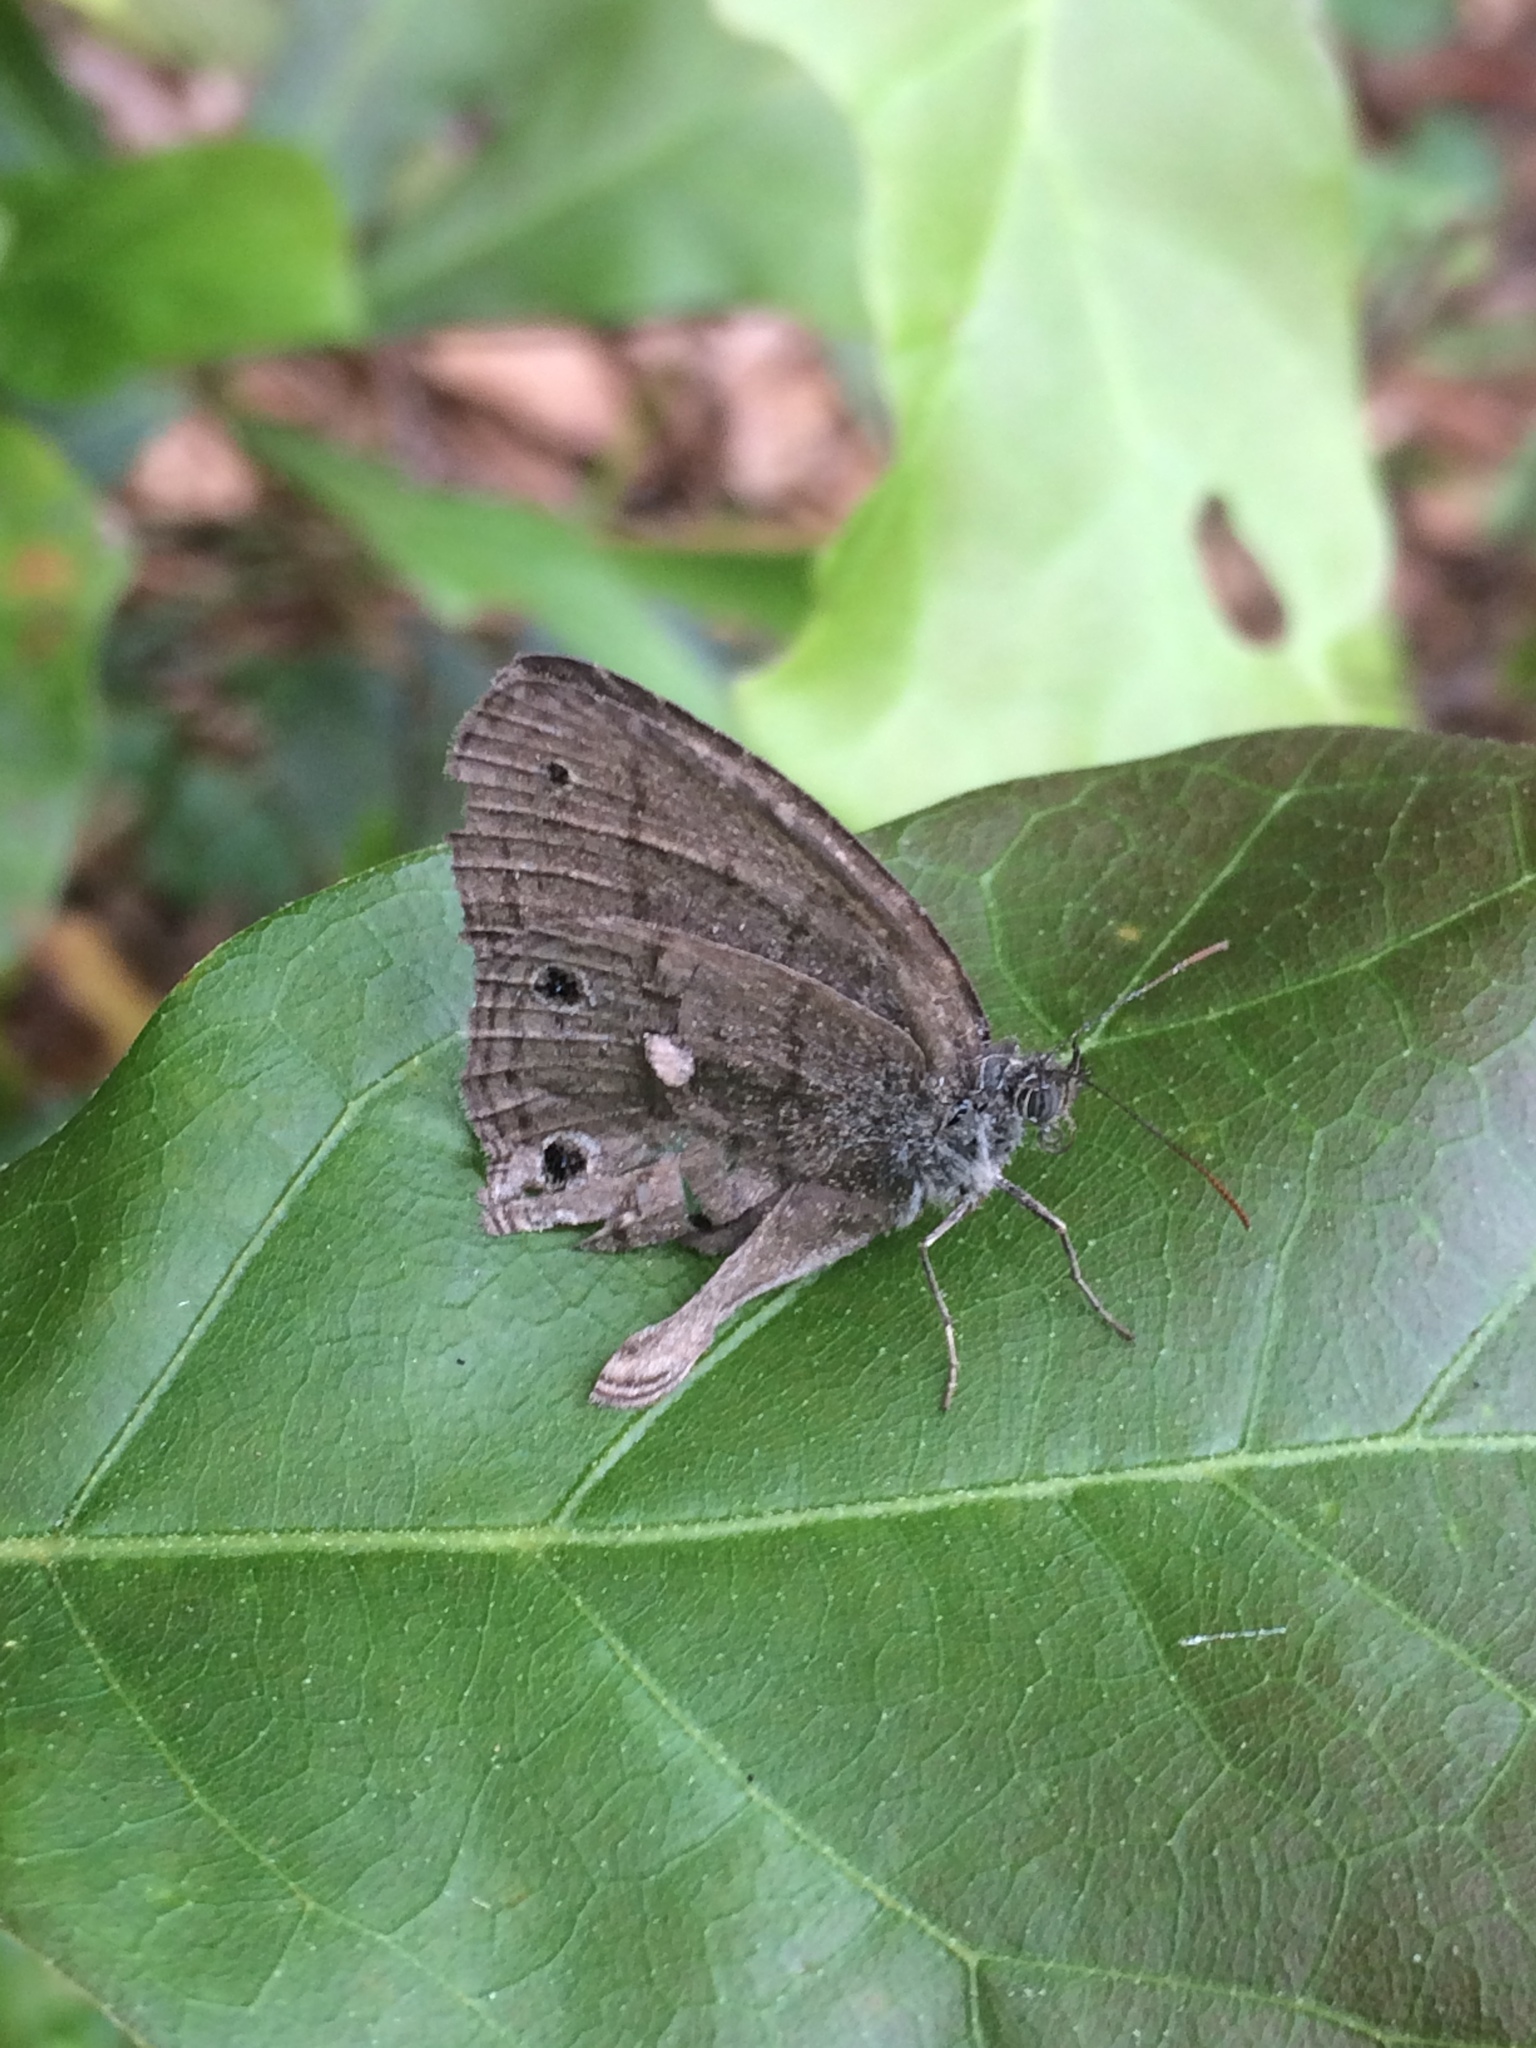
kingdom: Animalia
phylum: Arthropoda
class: Insecta
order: Lepidoptera
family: Nymphalidae
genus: Hermeuptychia
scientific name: Hermeuptychia hermes
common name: Hermes satyr
